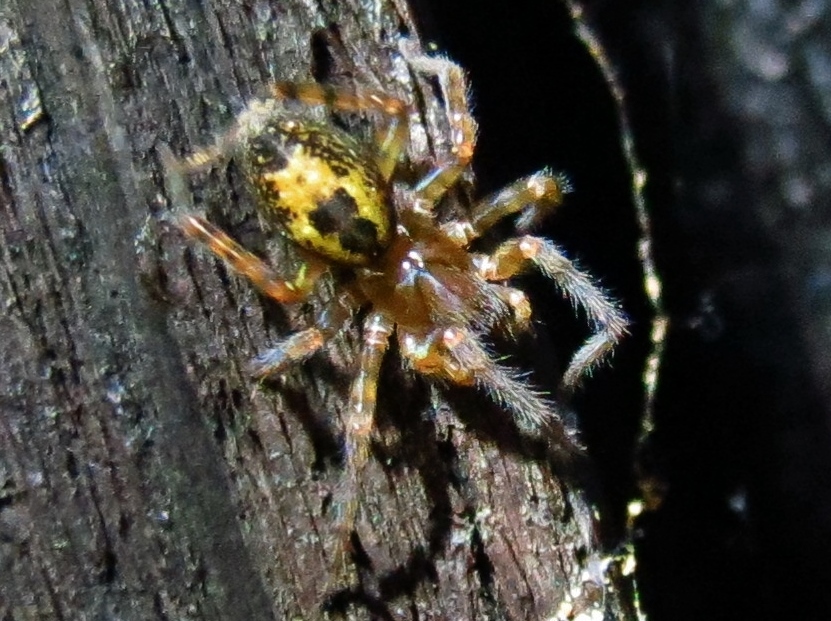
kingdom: Animalia
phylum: Arthropoda
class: Arachnida
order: Araneae
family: Amaurobiidae
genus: Amaurobius
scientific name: Amaurobius fenestralis
